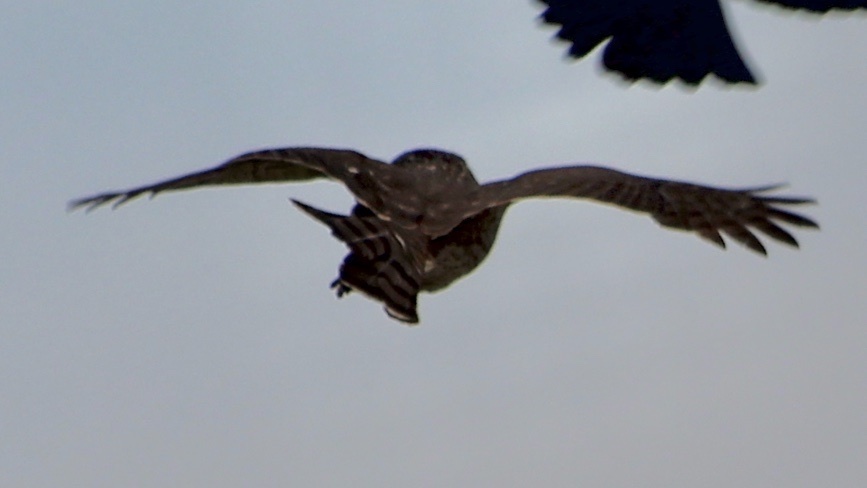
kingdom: Animalia
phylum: Chordata
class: Aves
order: Accipitriformes
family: Accipitridae
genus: Accipiter
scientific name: Accipiter striatus
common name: Sharp-shinned hawk
